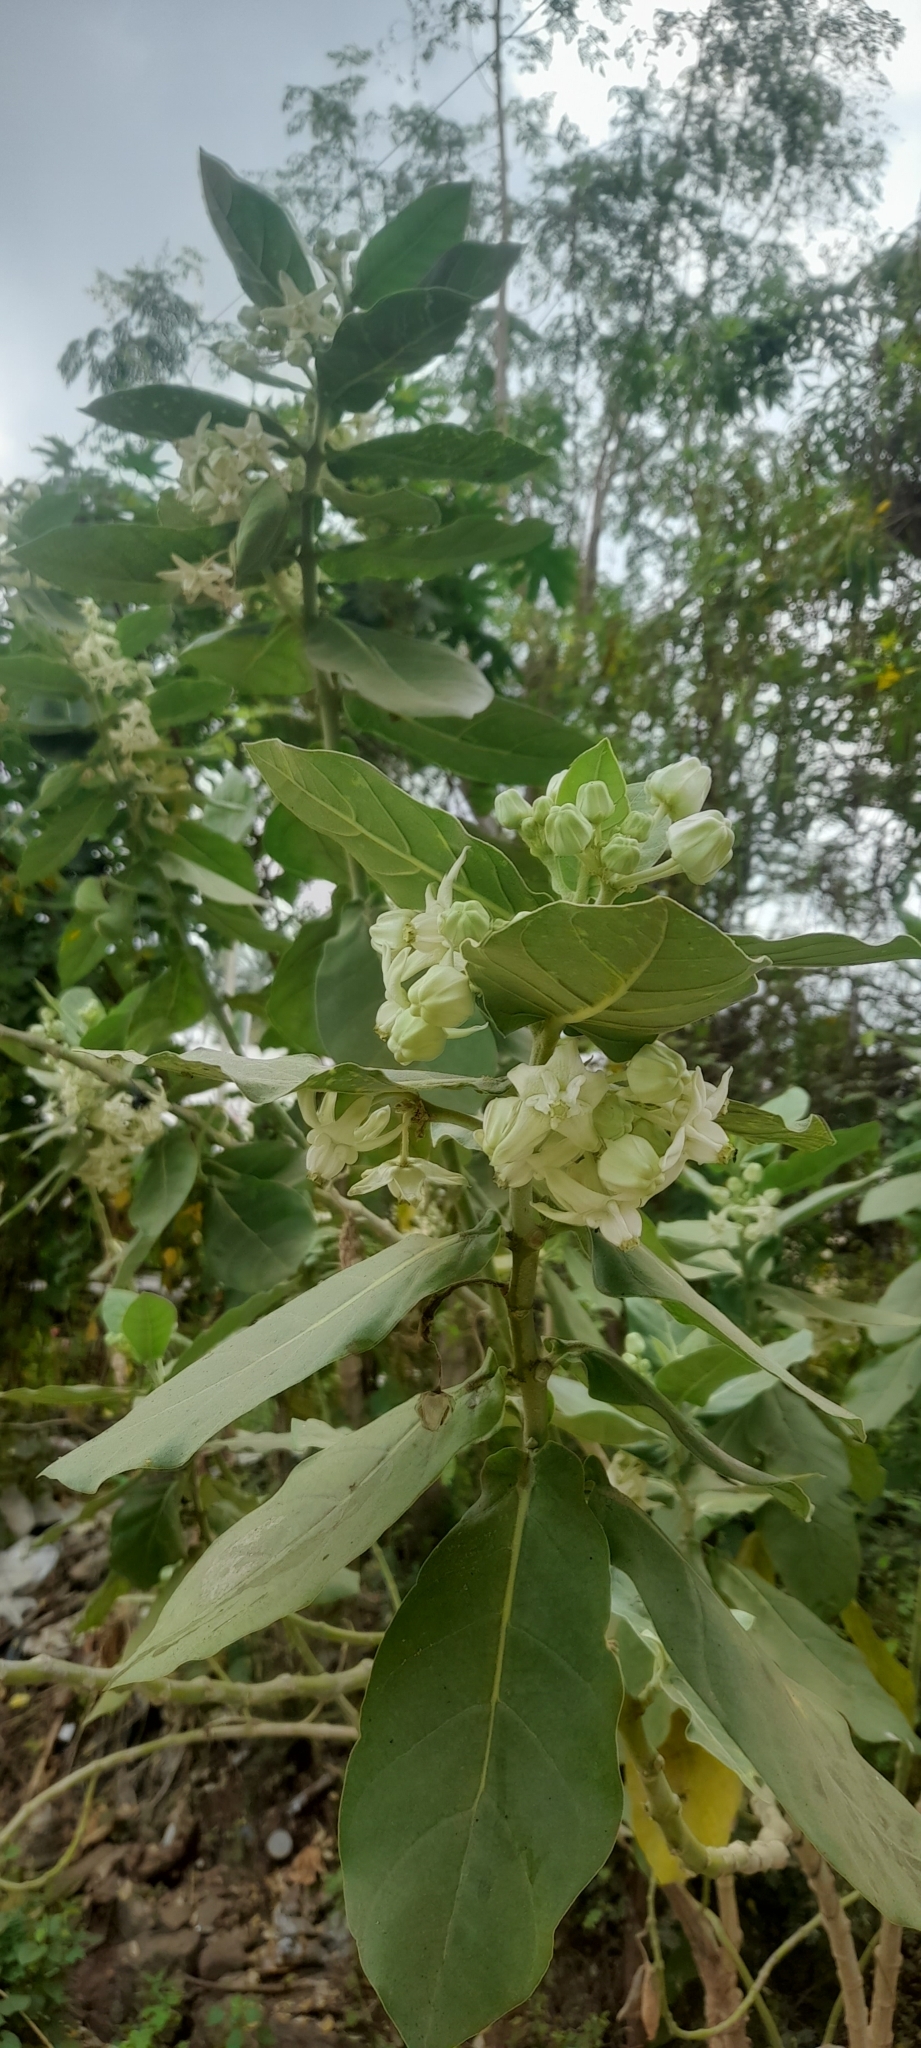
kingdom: Plantae
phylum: Tracheophyta
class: Magnoliopsida
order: Gentianales
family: Apocynaceae
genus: Calotropis
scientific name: Calotropis gigantea
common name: Crown flower
